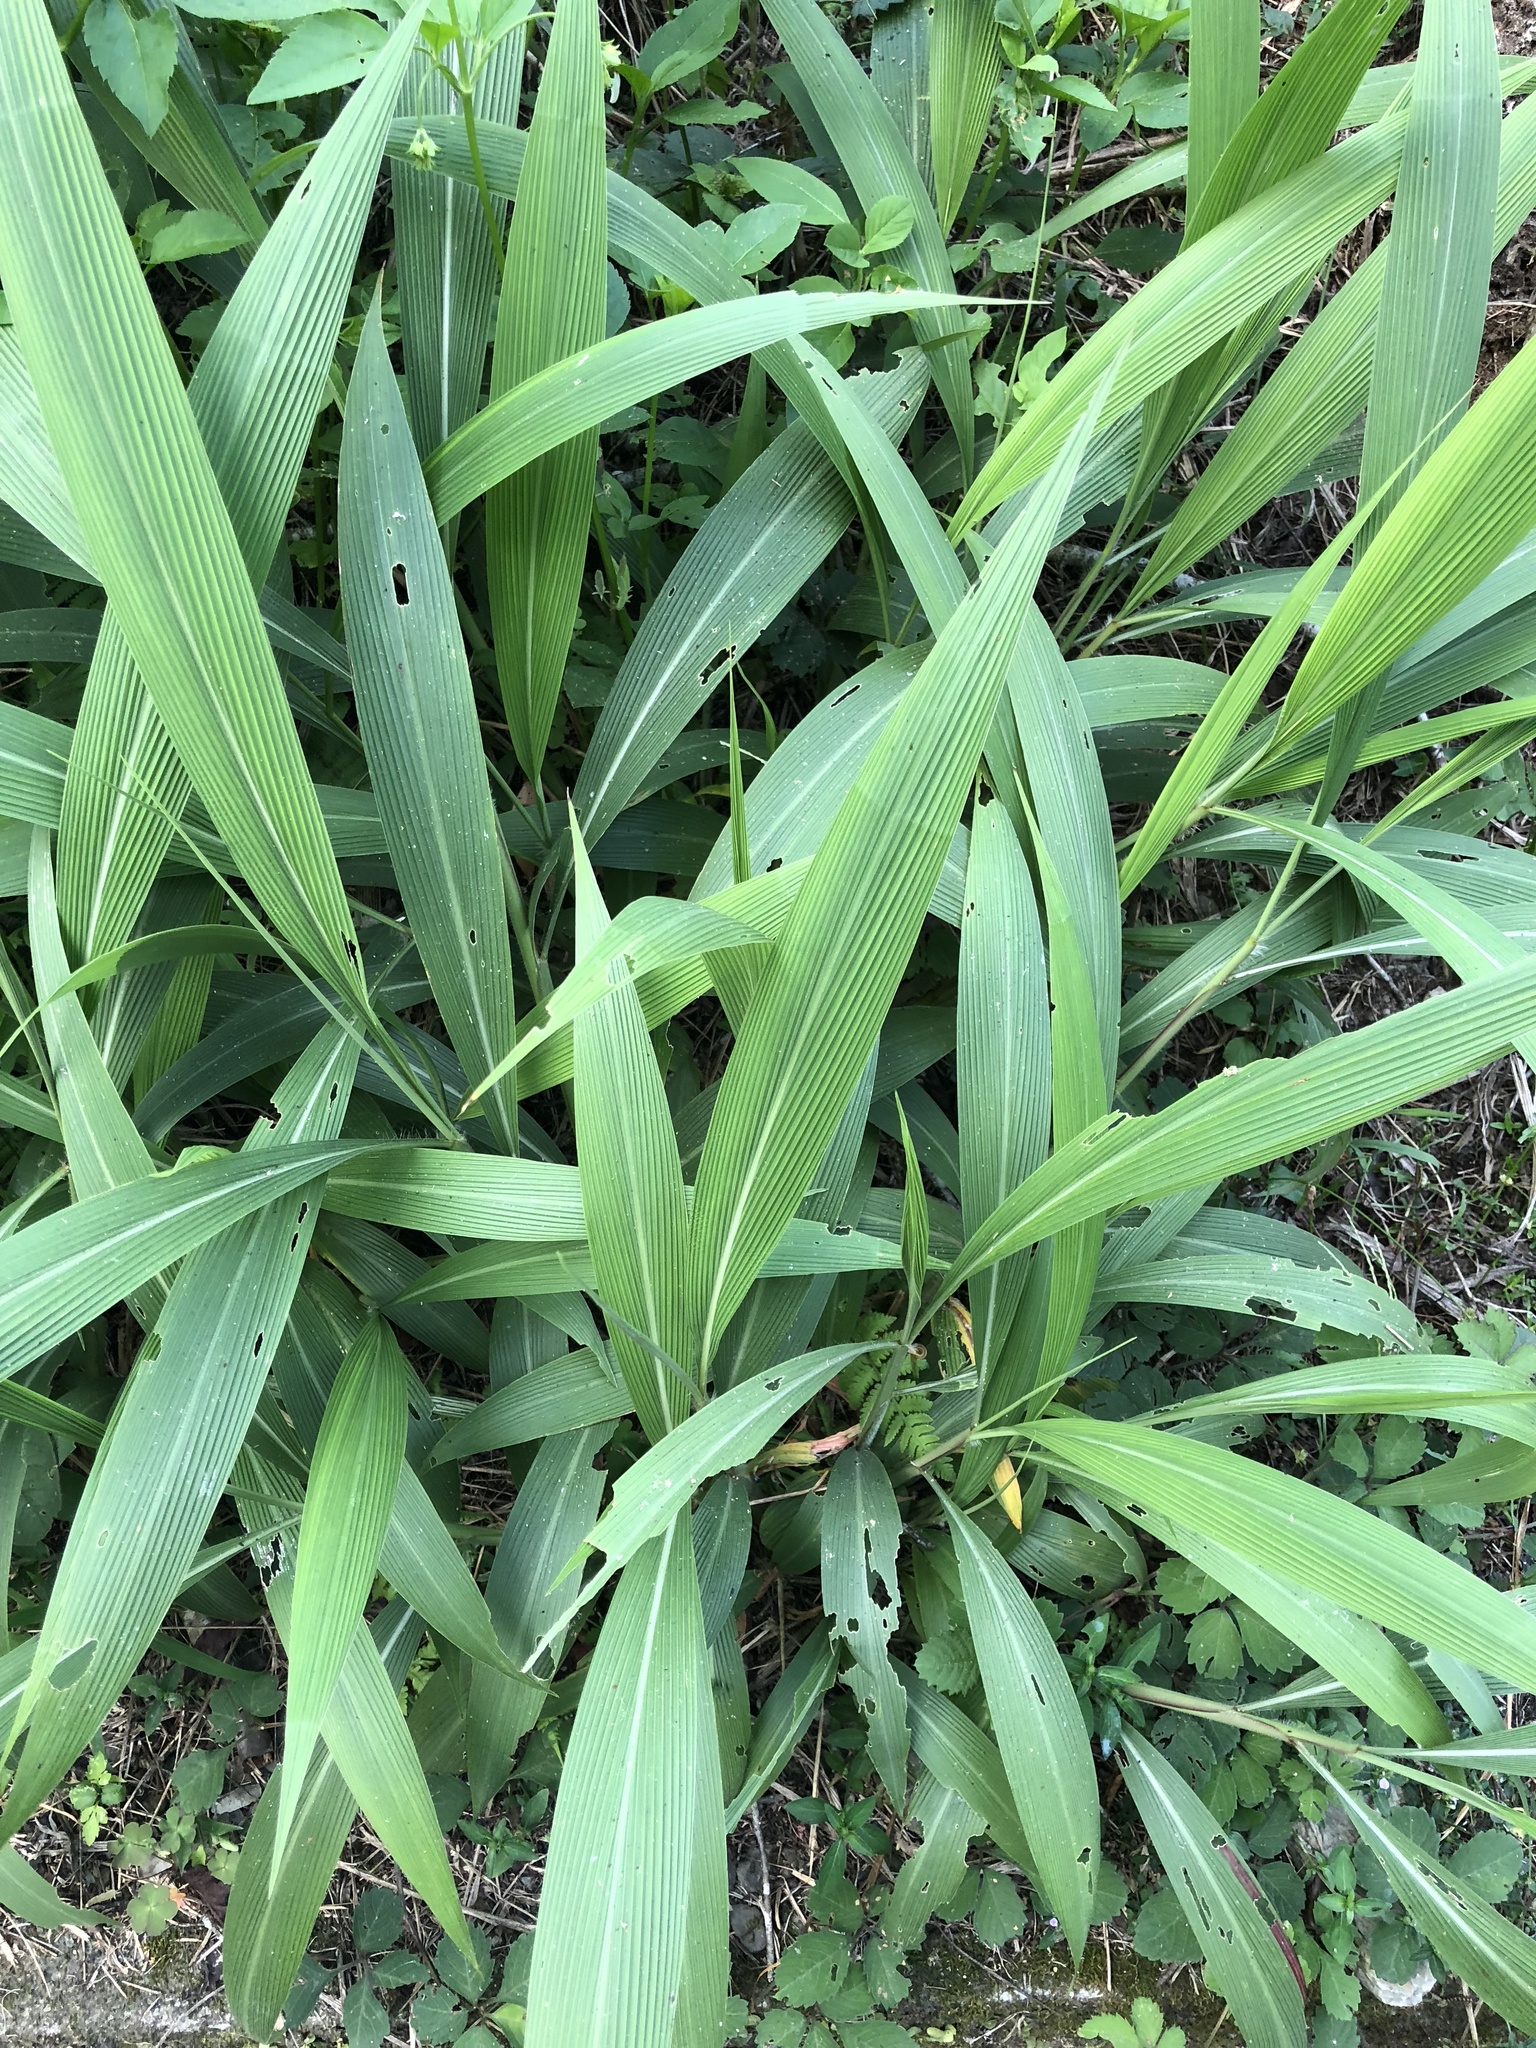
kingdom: Plantae
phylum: Tracheophyta
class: Liliopsida
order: Poales
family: Poaceae
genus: Setaria
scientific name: Setaria palmifolia
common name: Broadleaved bristlegrass
